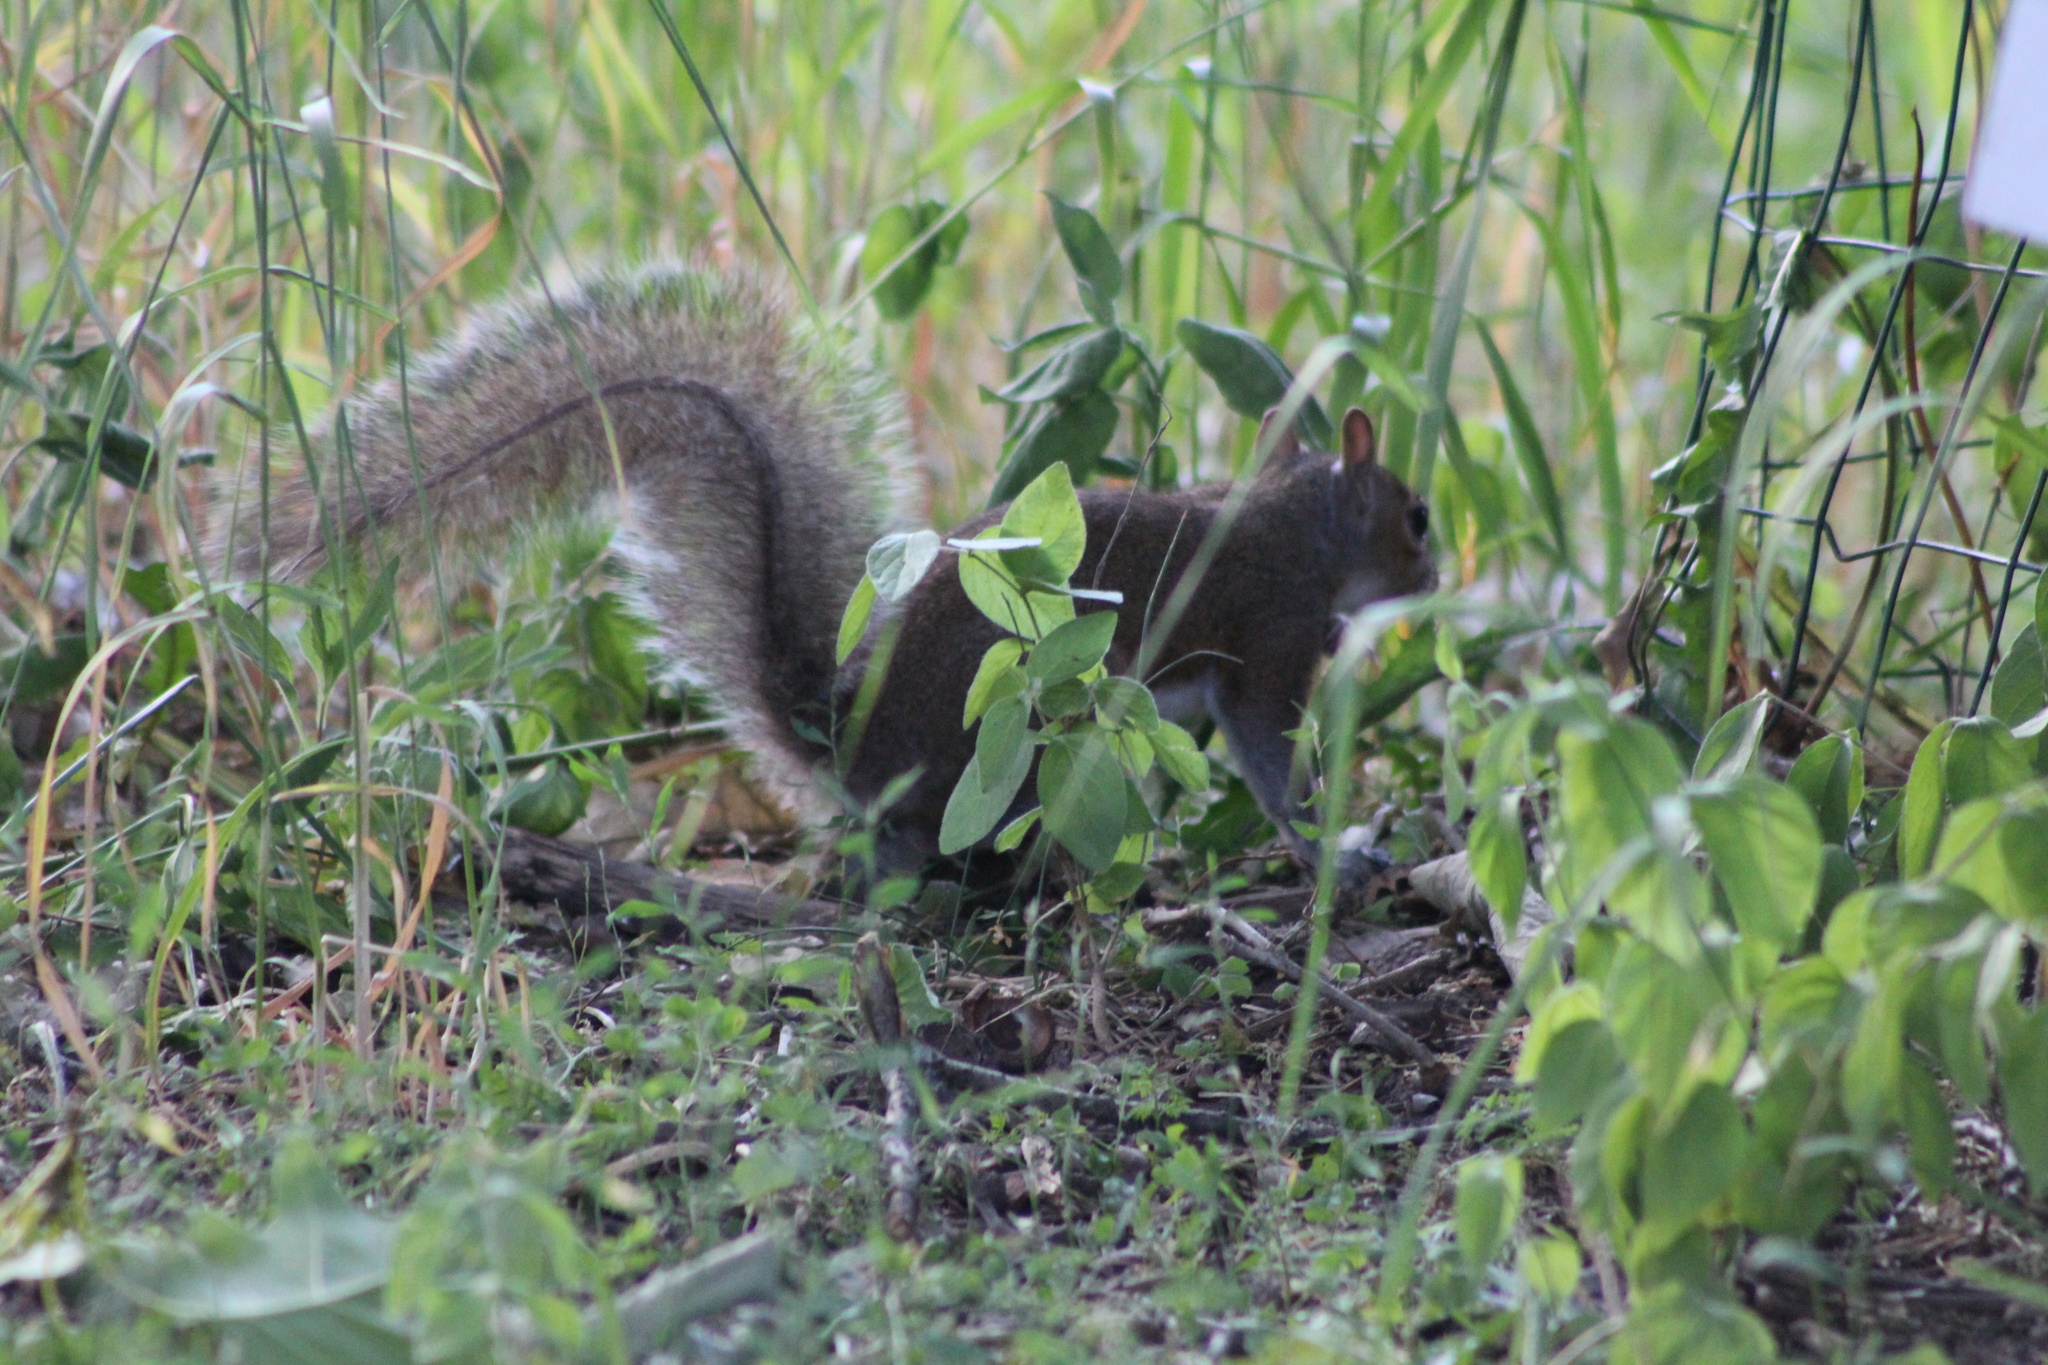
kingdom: Animalia
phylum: Chordata
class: Mammalia
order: Rodentia
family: Sciuridae
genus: Sciurus
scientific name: Sciurus carolinensis
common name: Eastern gray squirrel
